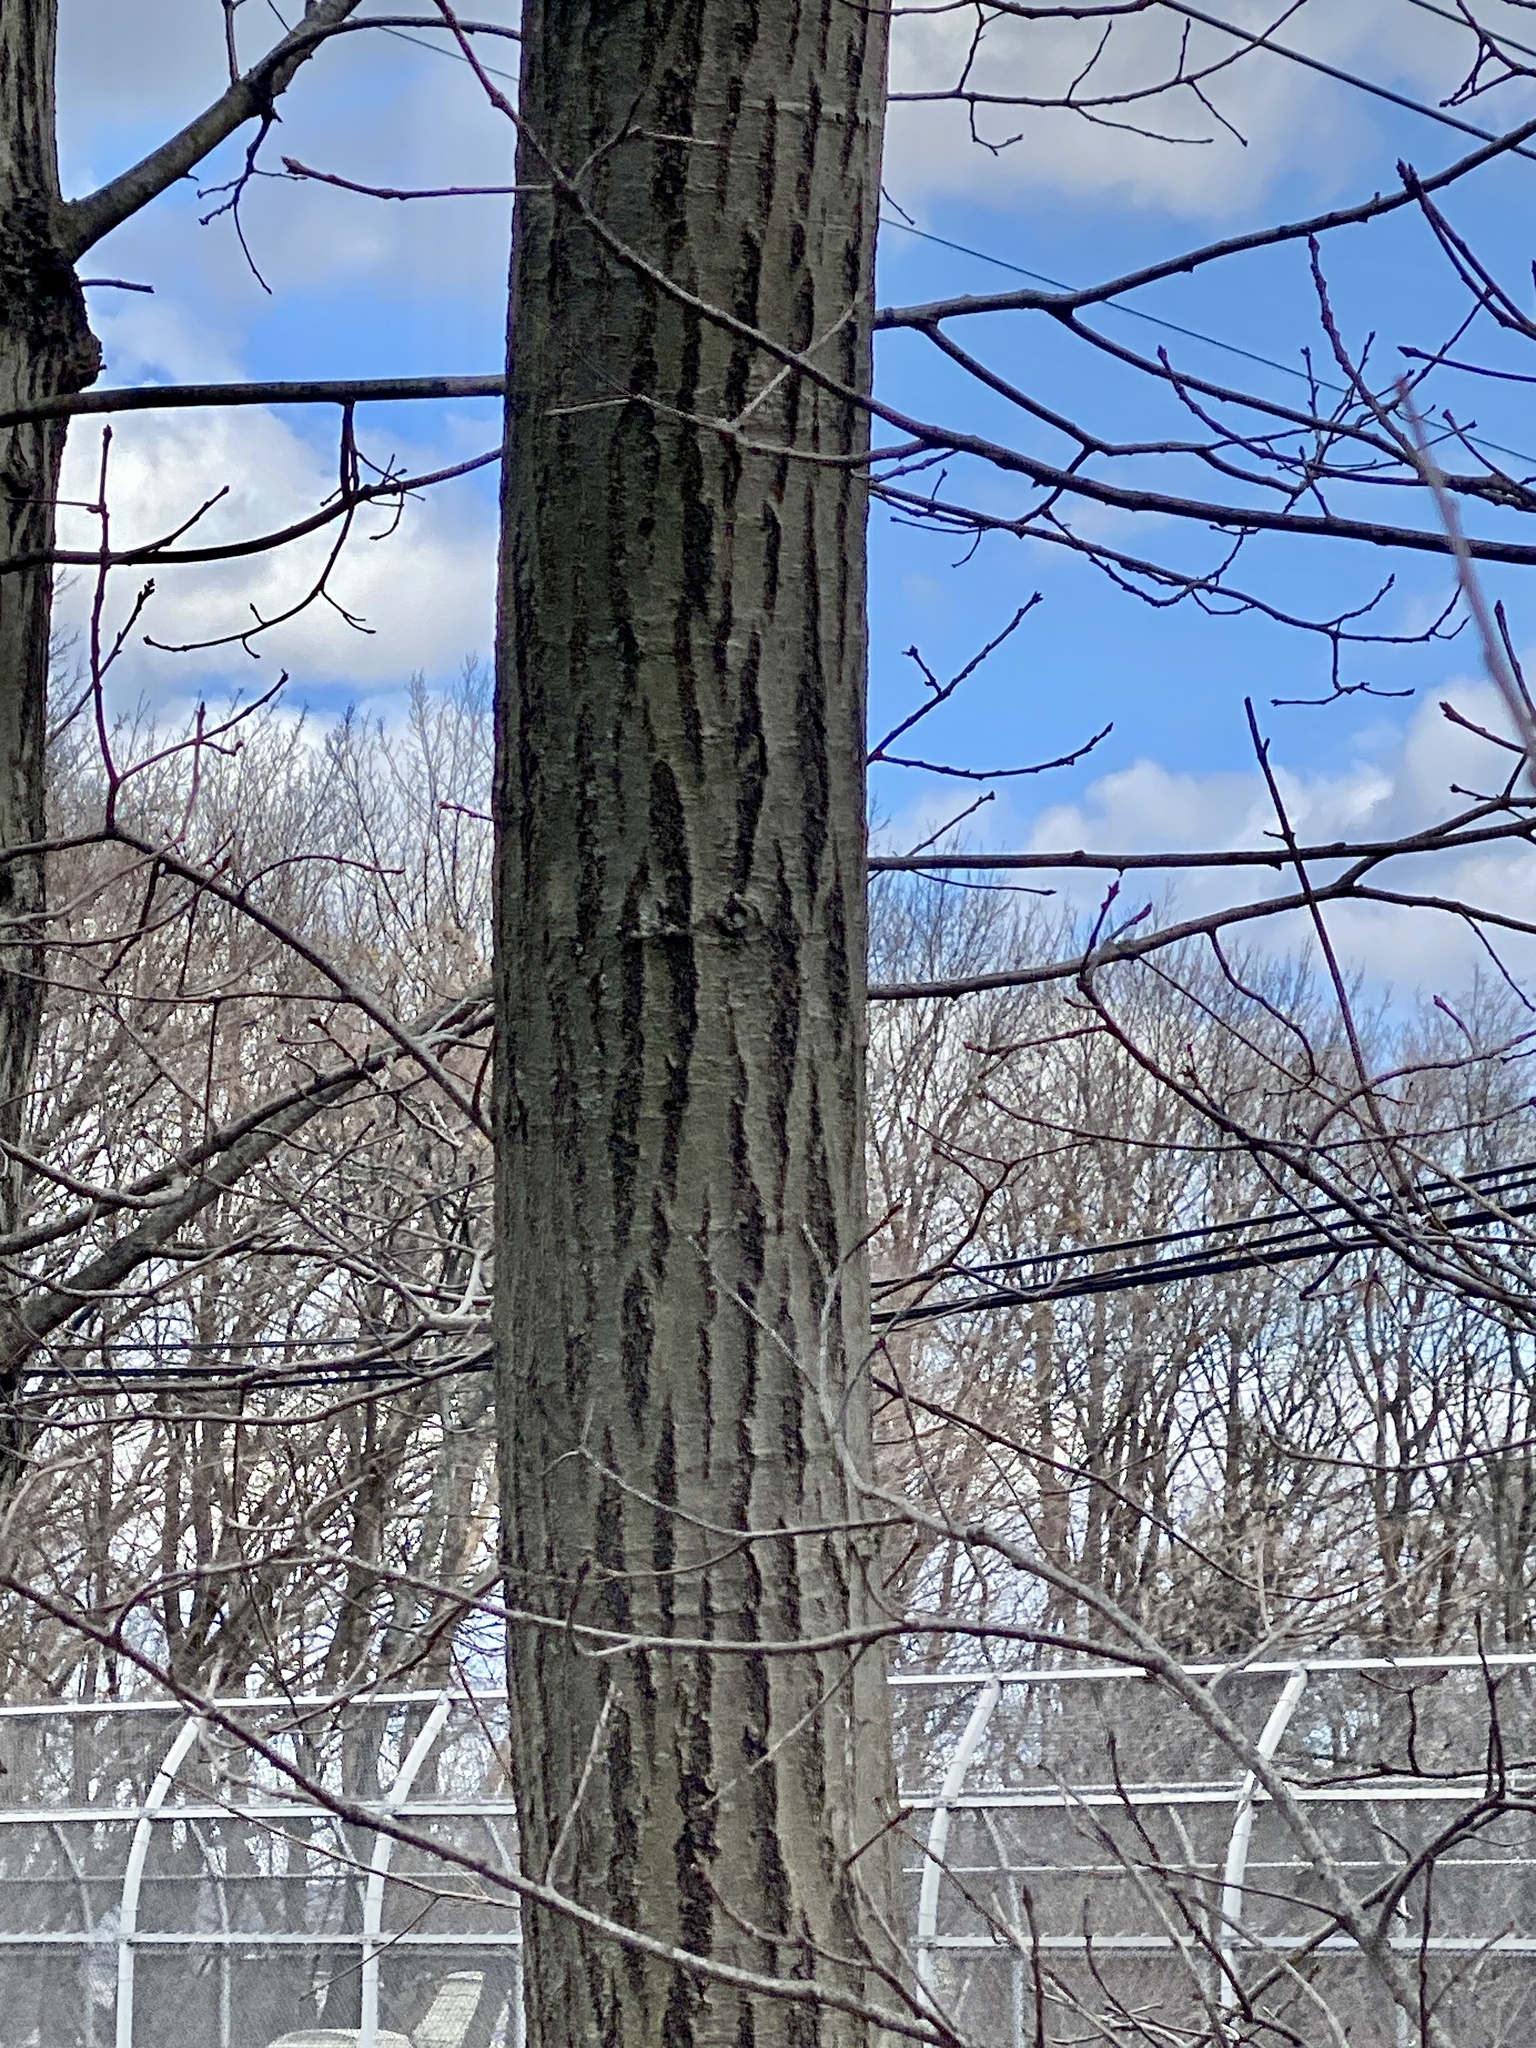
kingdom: Plantae
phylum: Tracheophyta
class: Magnoliopsida
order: Fagales
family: Fagaceae
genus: Quercus
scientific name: Quercus rubra
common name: Red oak
